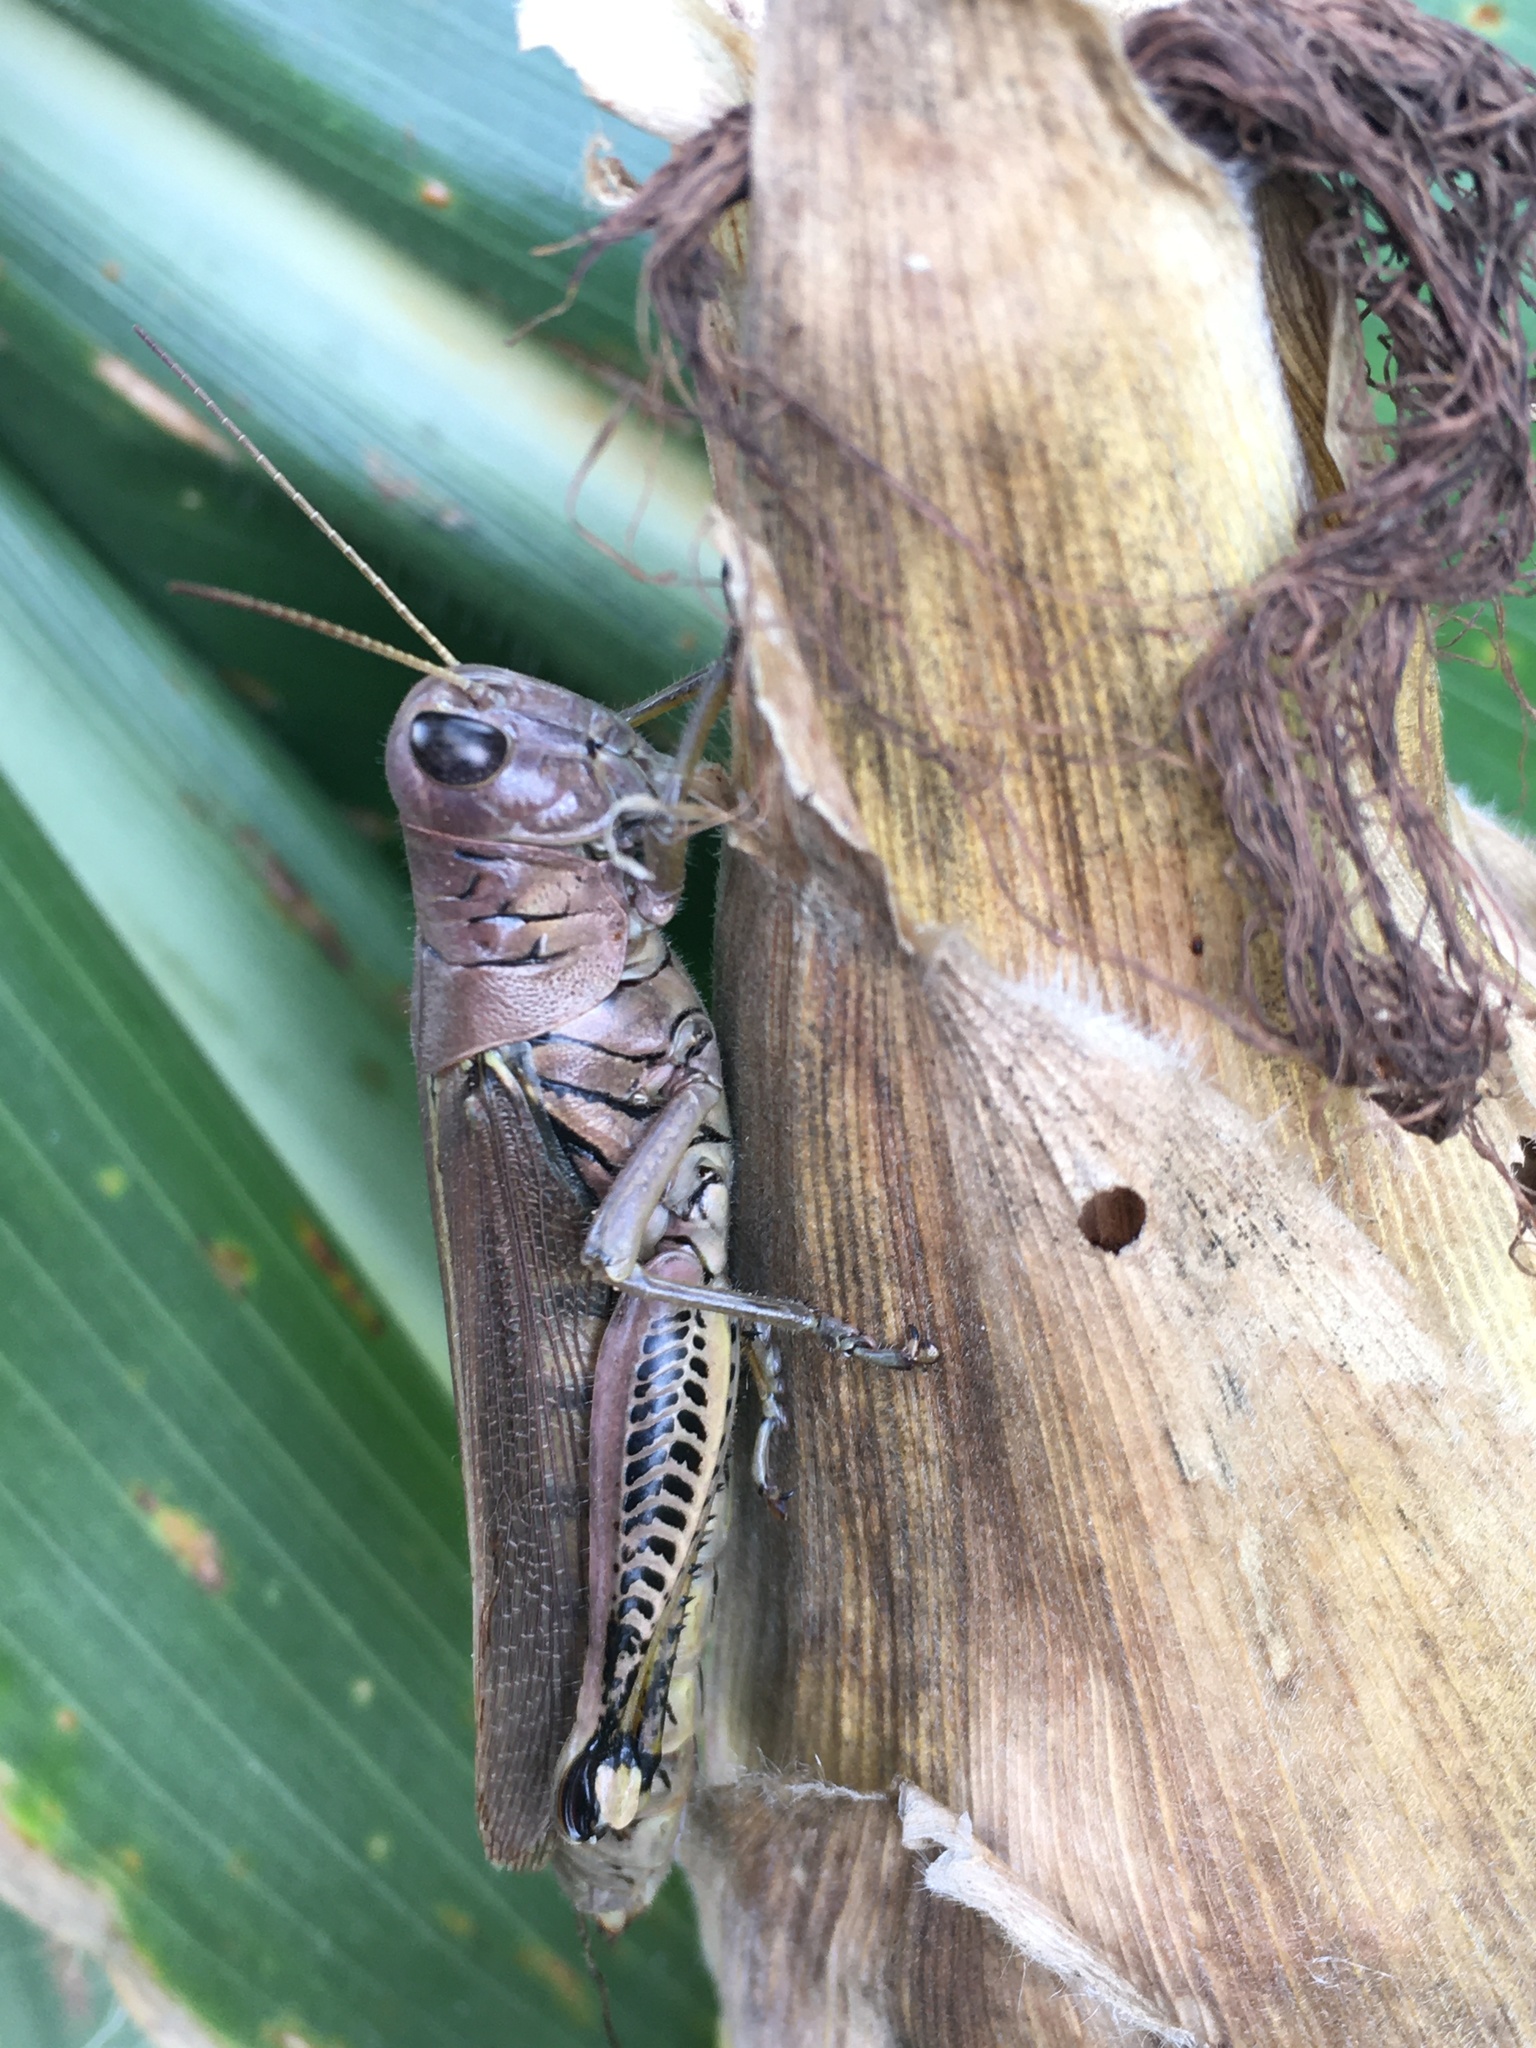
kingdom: Animalia
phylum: Arthropoda
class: Insecta
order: Orthoptera
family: Acrididae
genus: Melanoplus
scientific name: Melanoplus differentialis
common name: Differential grasshopper
